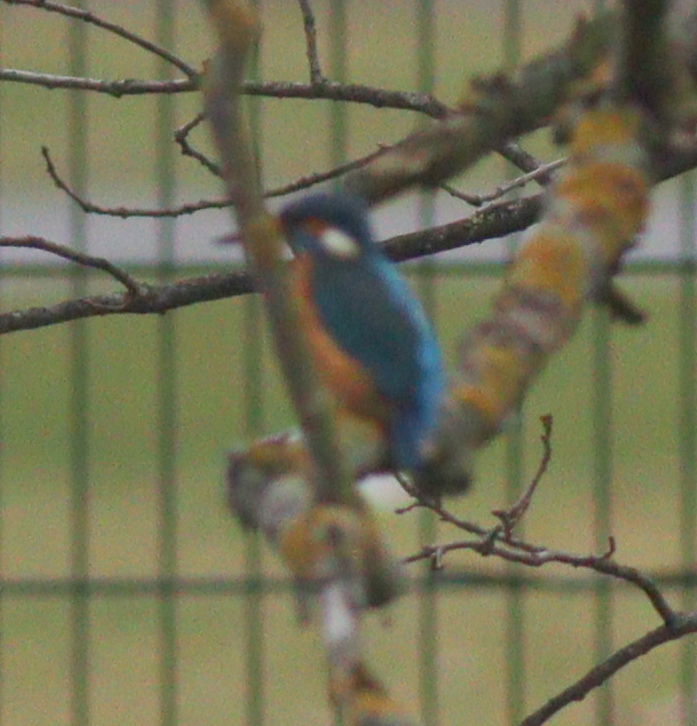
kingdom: Animalia
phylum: Chordata
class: Aves
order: Coraciiformes
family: Alcedinidae
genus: Alcedo
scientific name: Alcedo atthis
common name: Common kingfisher
